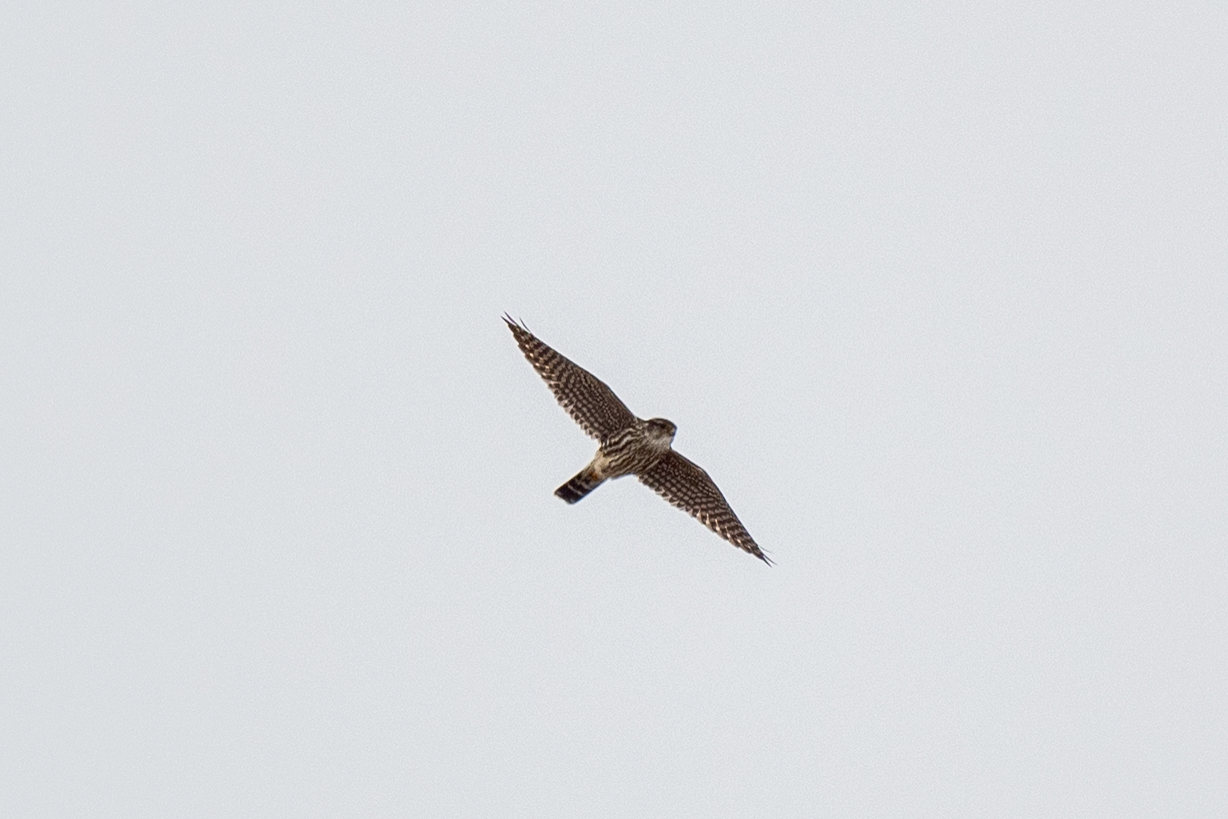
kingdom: Animalia
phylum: Chordata
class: Aves
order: Falconiformes
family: Falconidae
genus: Falco
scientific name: Falco columbarius
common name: Merlin
